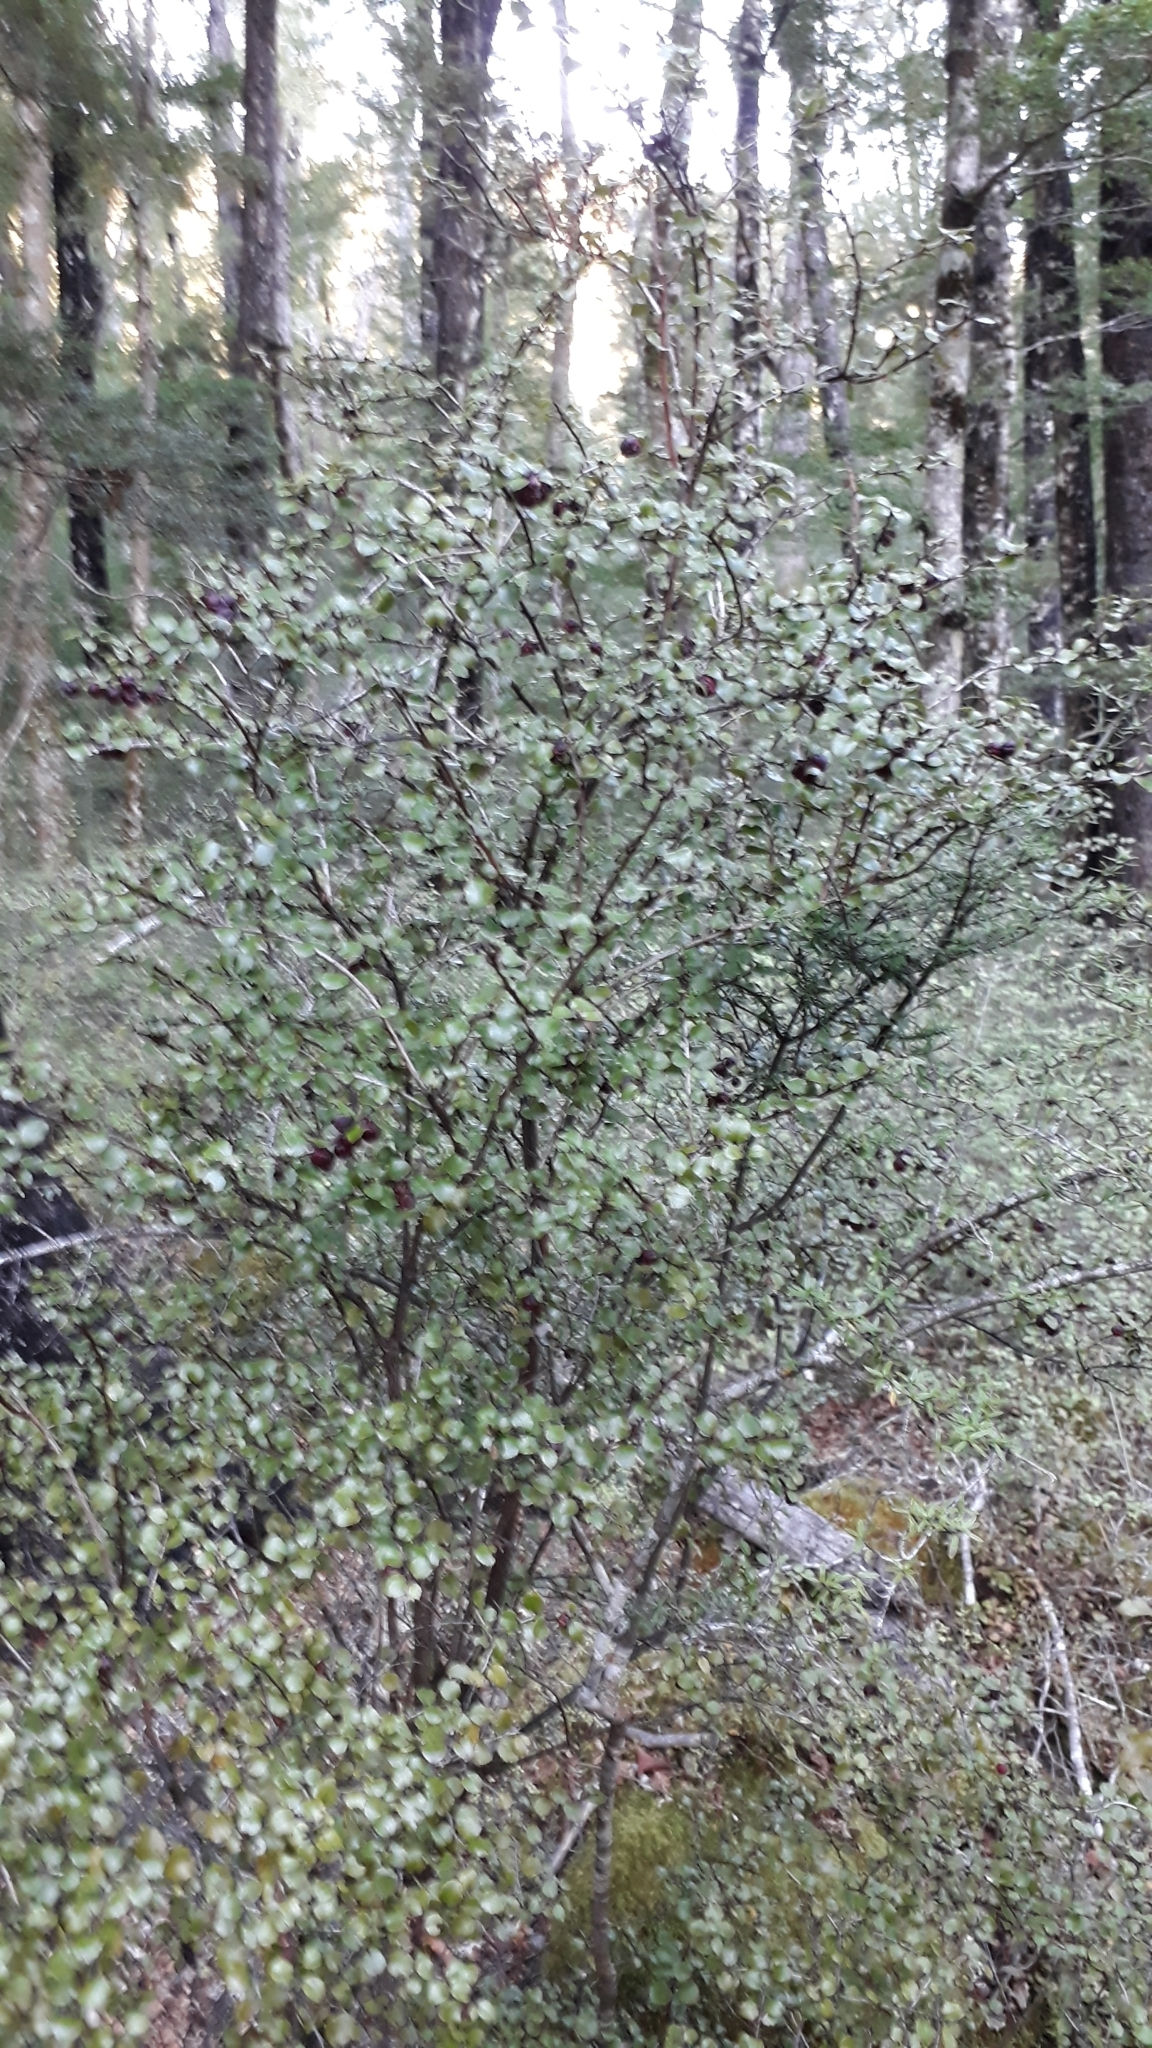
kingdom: Plantae
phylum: Tracheophyta
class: Magnoliopsida
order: Ericales
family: Ericaceae
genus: Gaultheria
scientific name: Gaultheria antipoda
